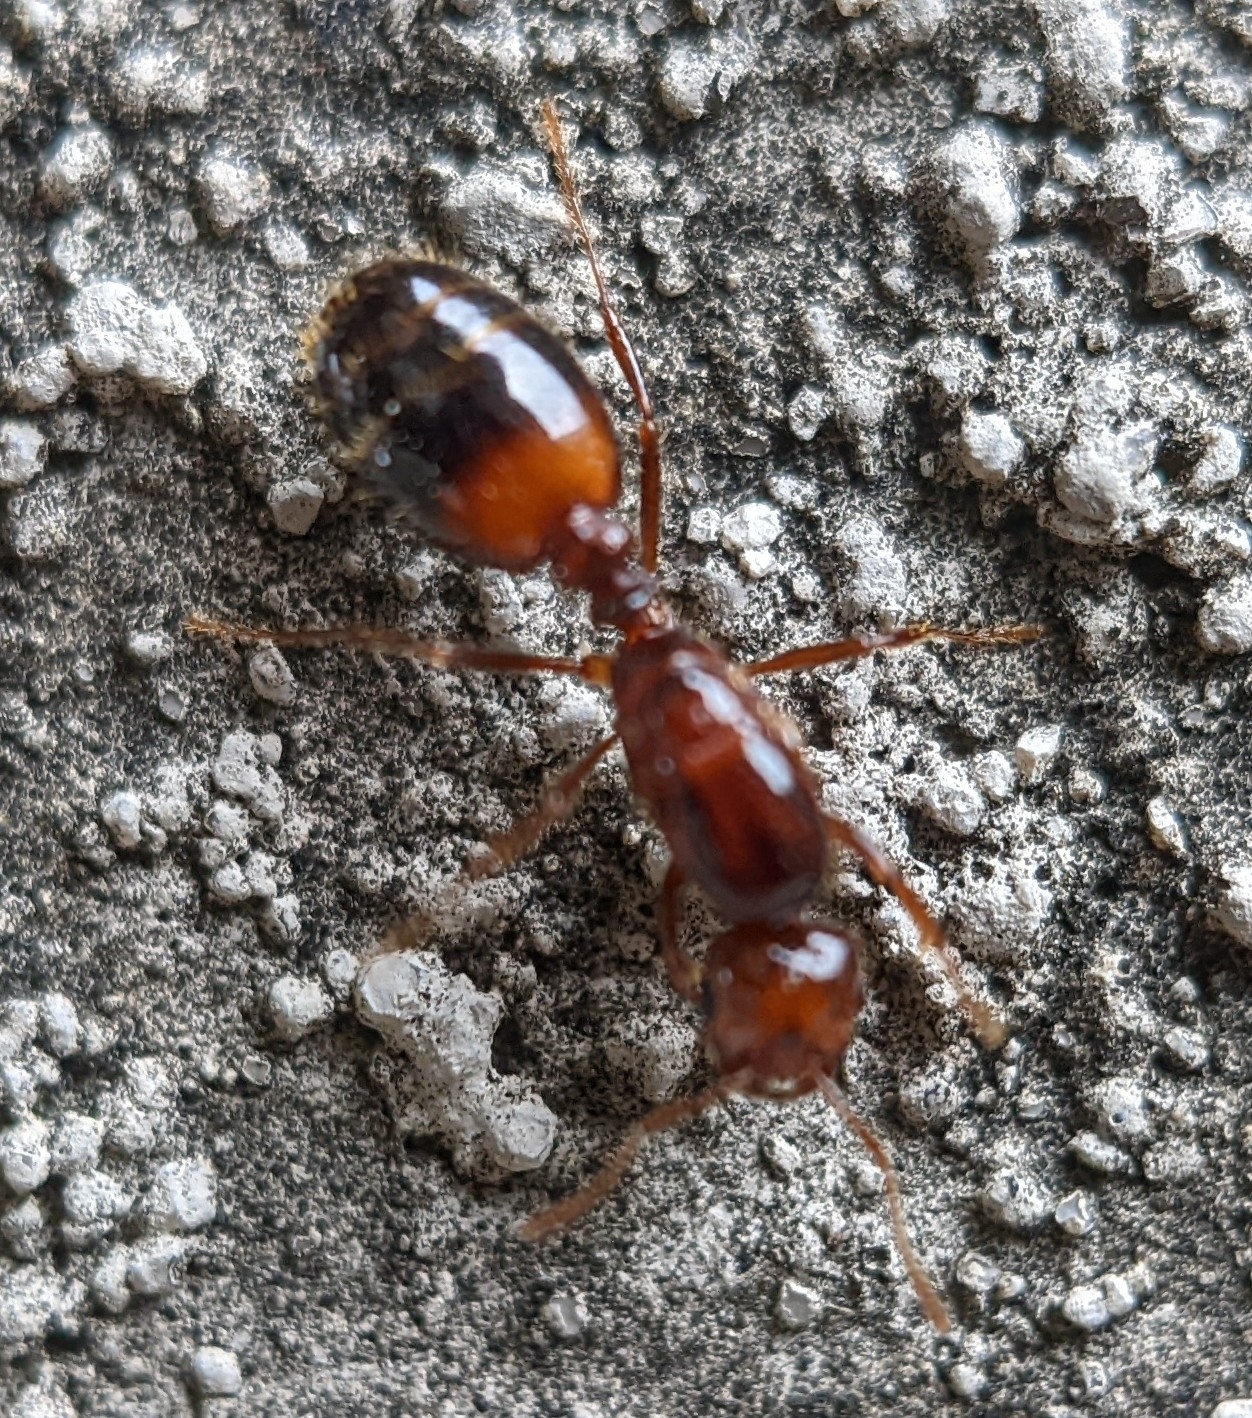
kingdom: Animalia
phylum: Arthropoda
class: Insecta
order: Hymenoptera
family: Formicidae
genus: Solenopsis
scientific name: Solenopsis invicta
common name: Red imported fire ant
